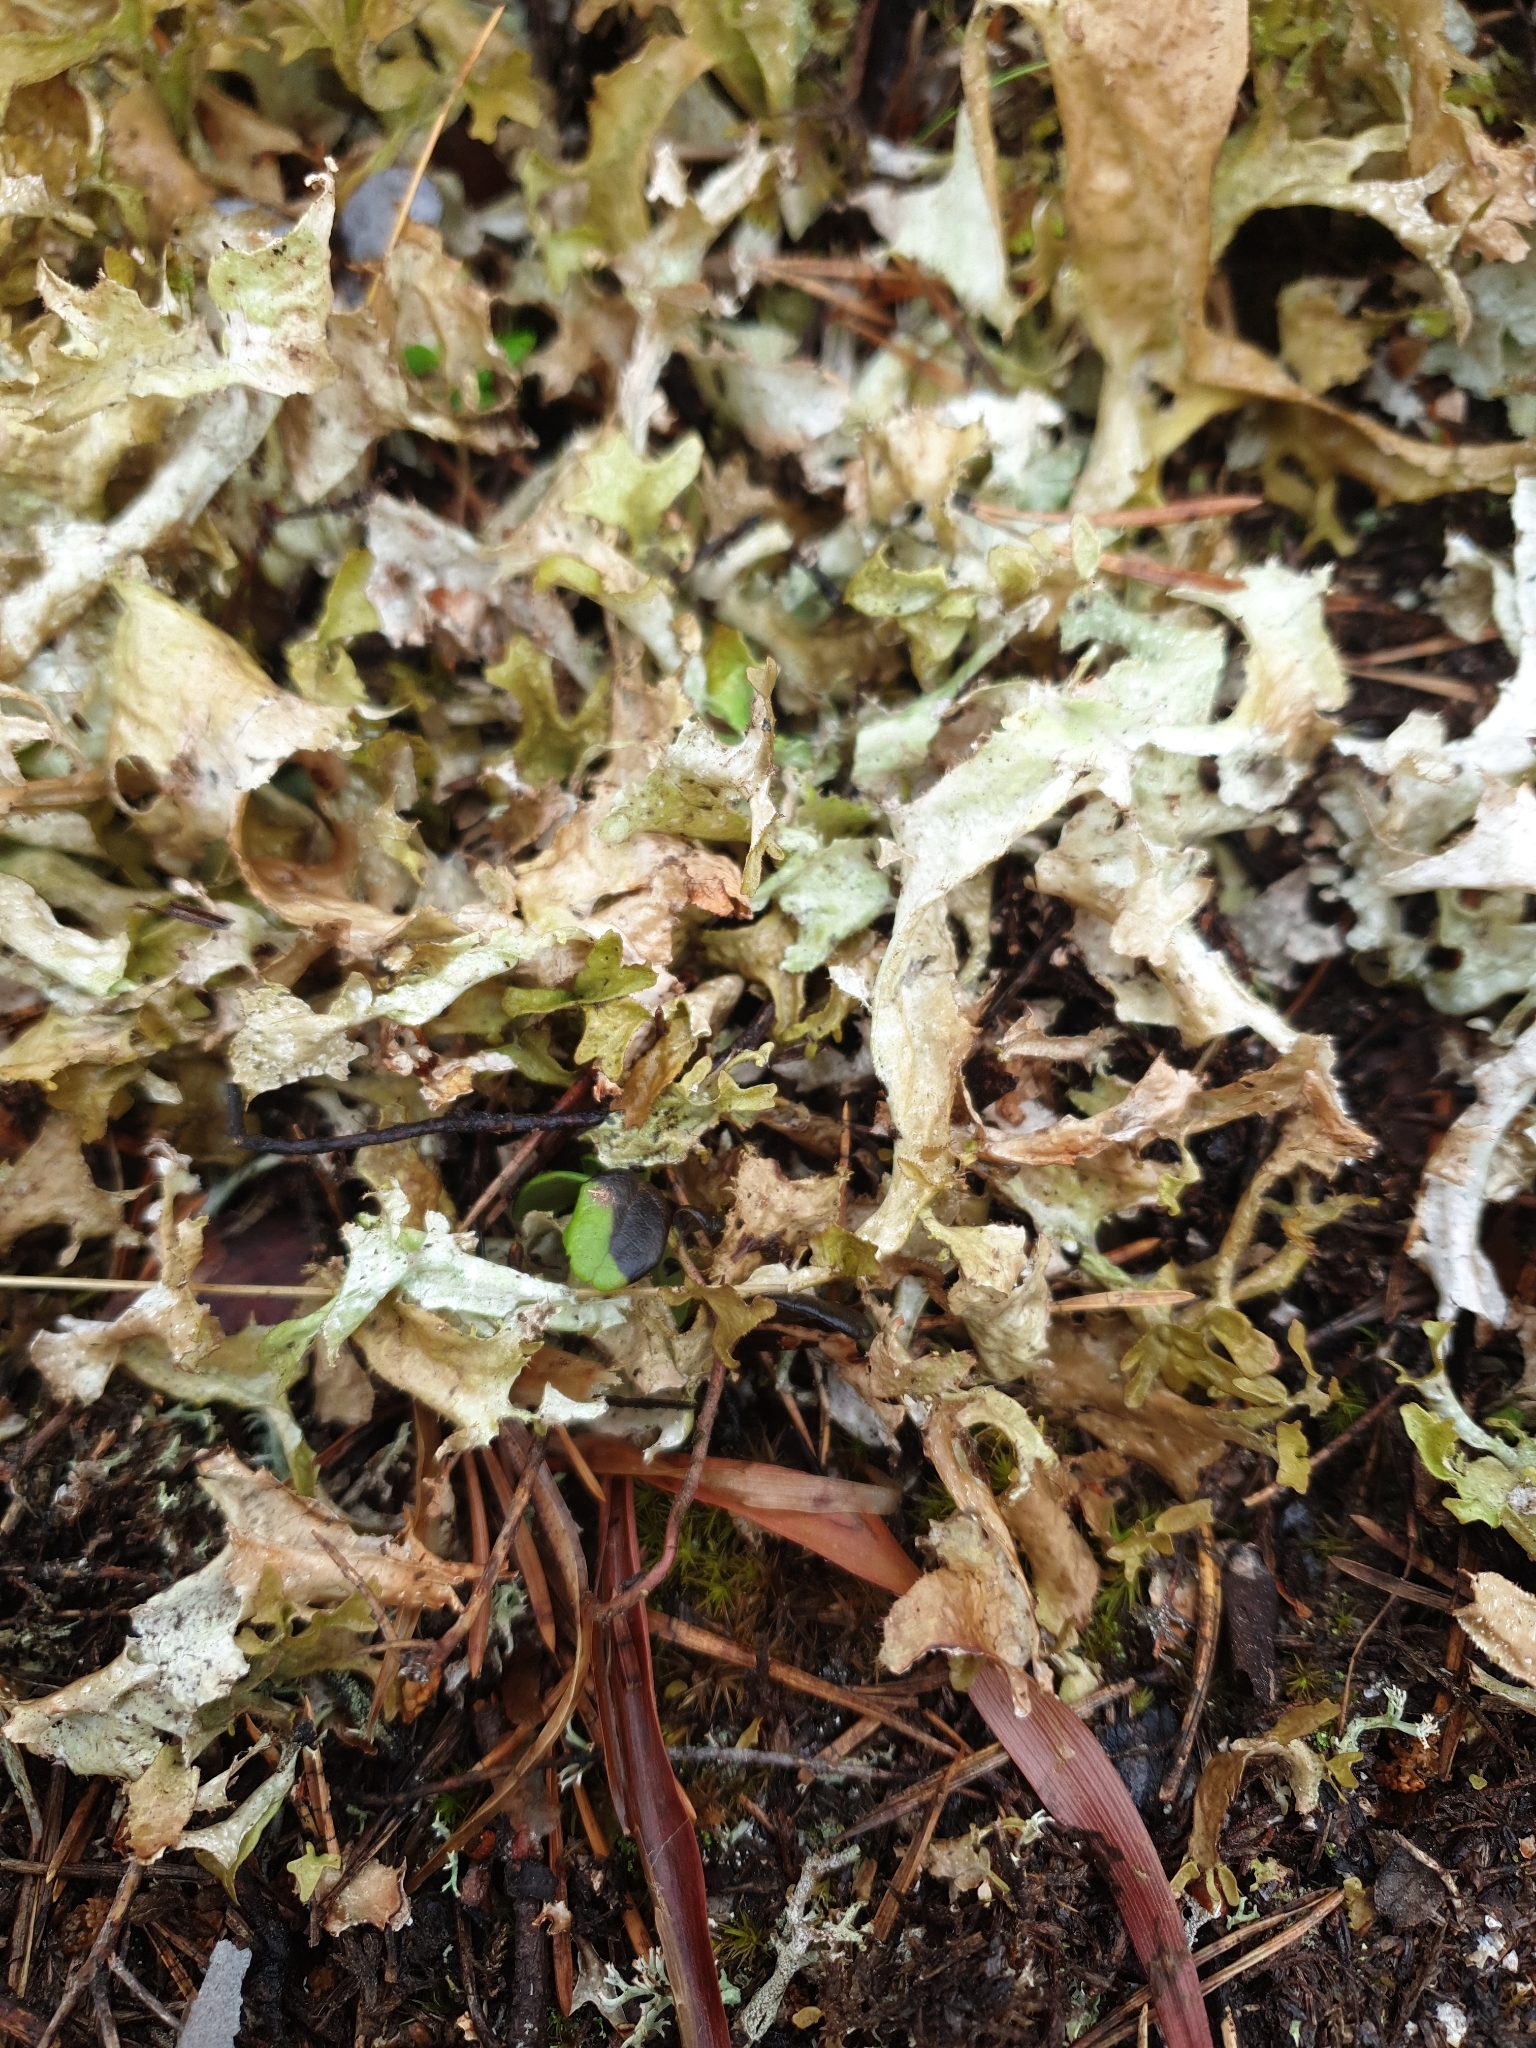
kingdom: Fungi
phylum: Ascomycota
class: Lecanoromycetes
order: Lecanorales
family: Parmeliaceae
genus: Cetraria
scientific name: Cetraria islandica
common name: Iceland lichen
